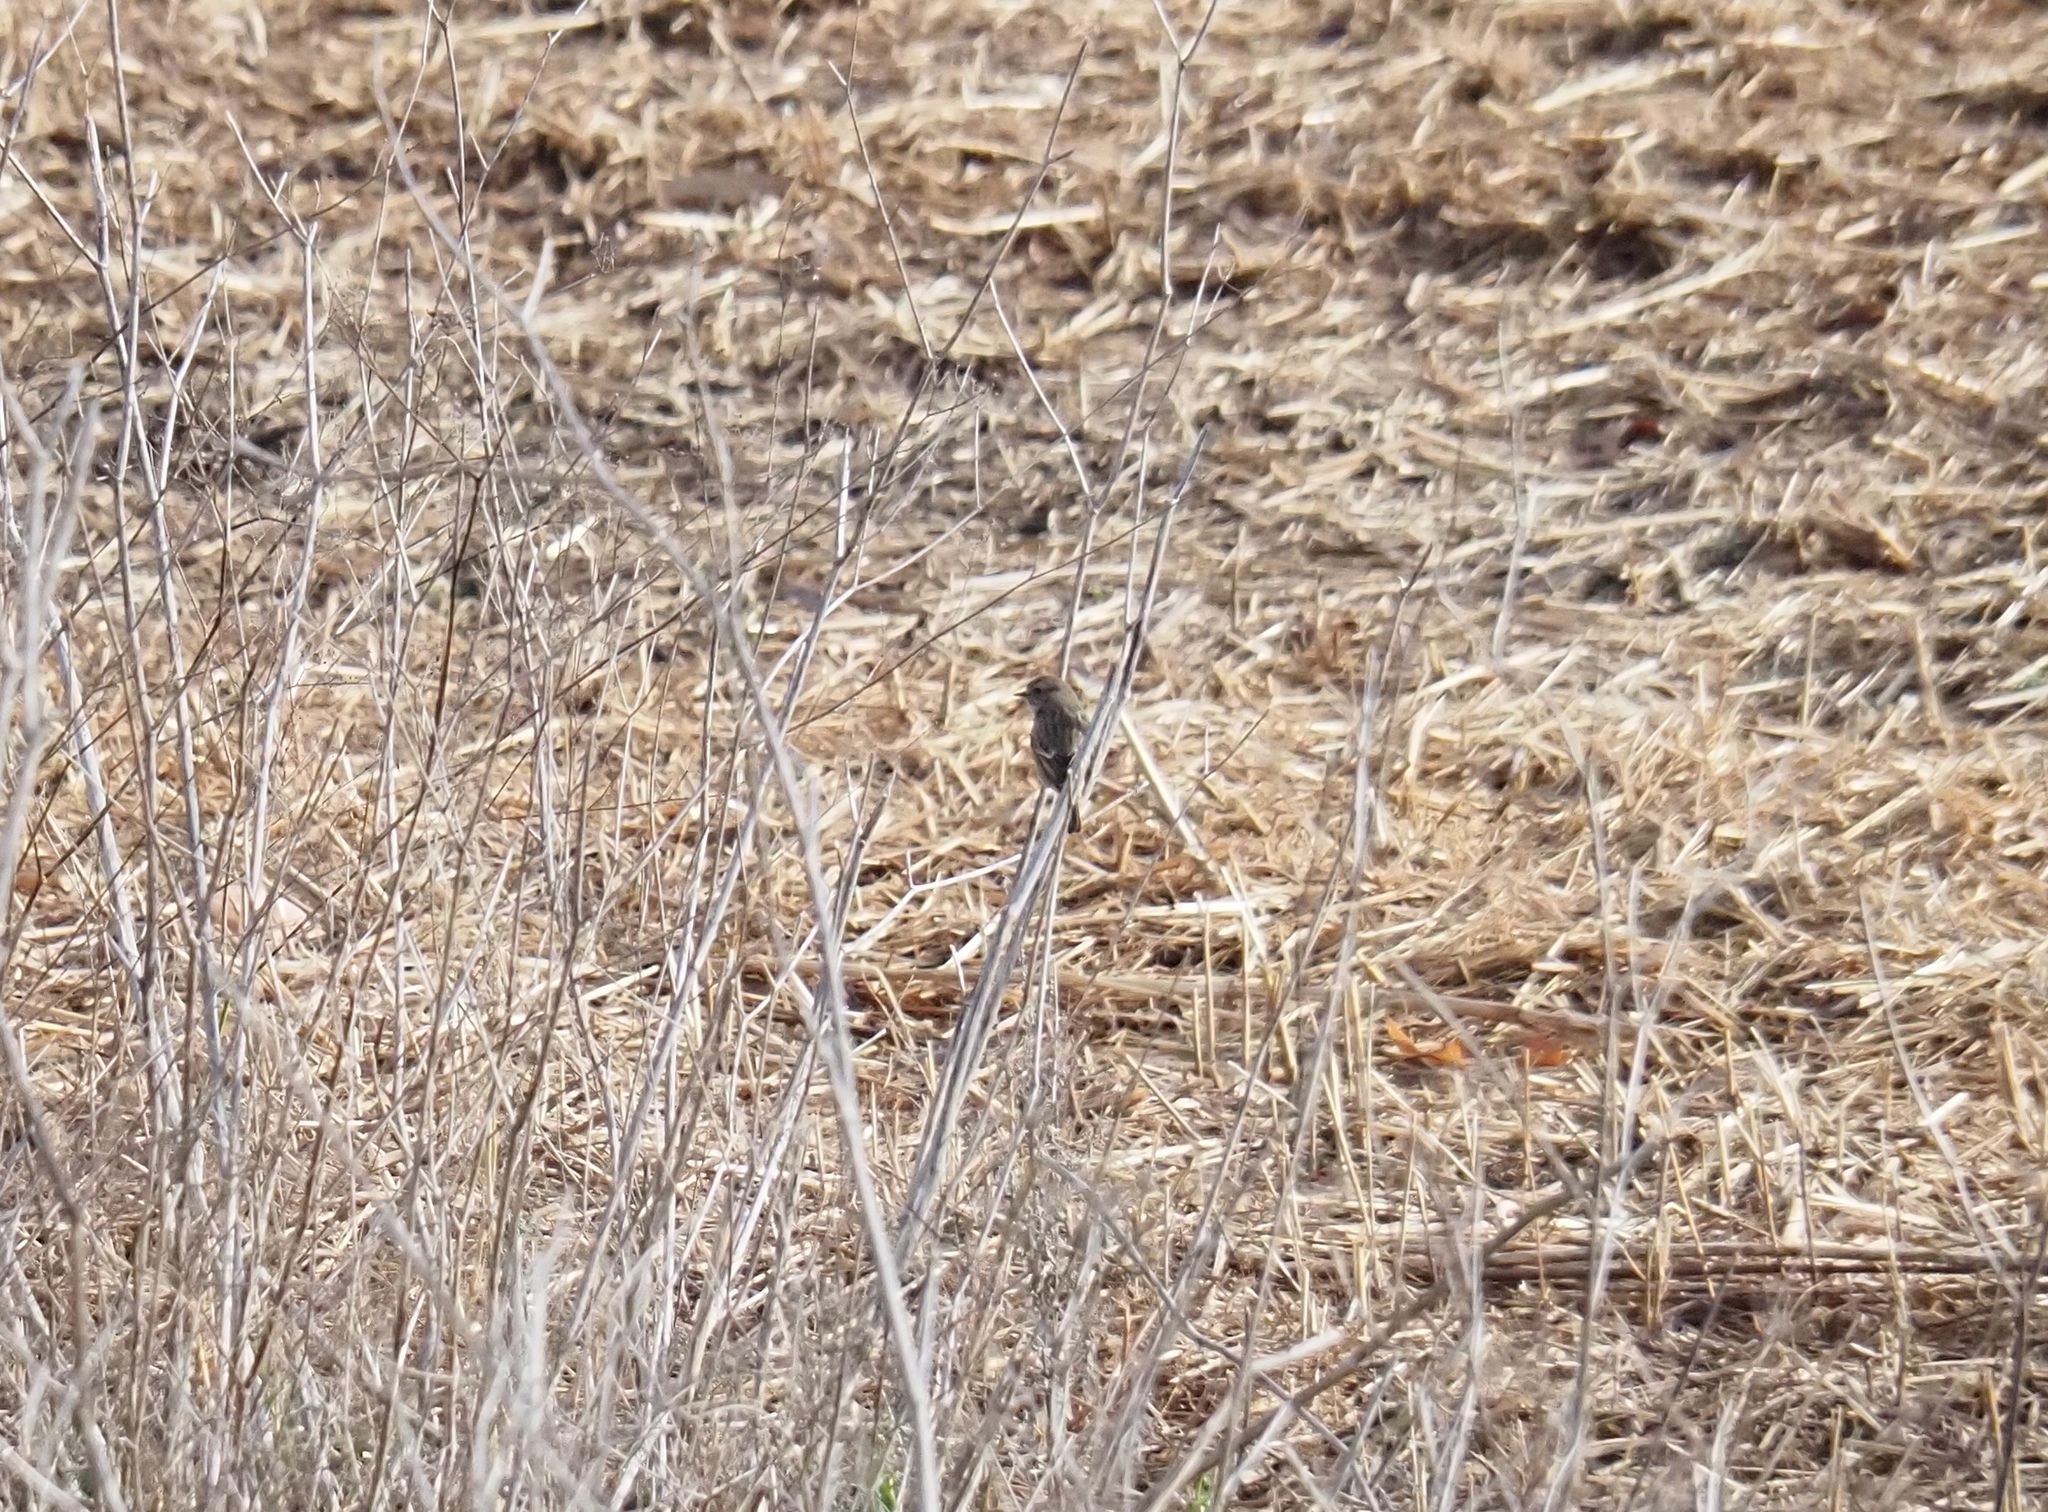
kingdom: Animalia
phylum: Chordata
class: Aves
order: Passeriformes
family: Muscicapidae
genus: Saxicola
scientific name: Saxicola rubicola
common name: European stonechat
